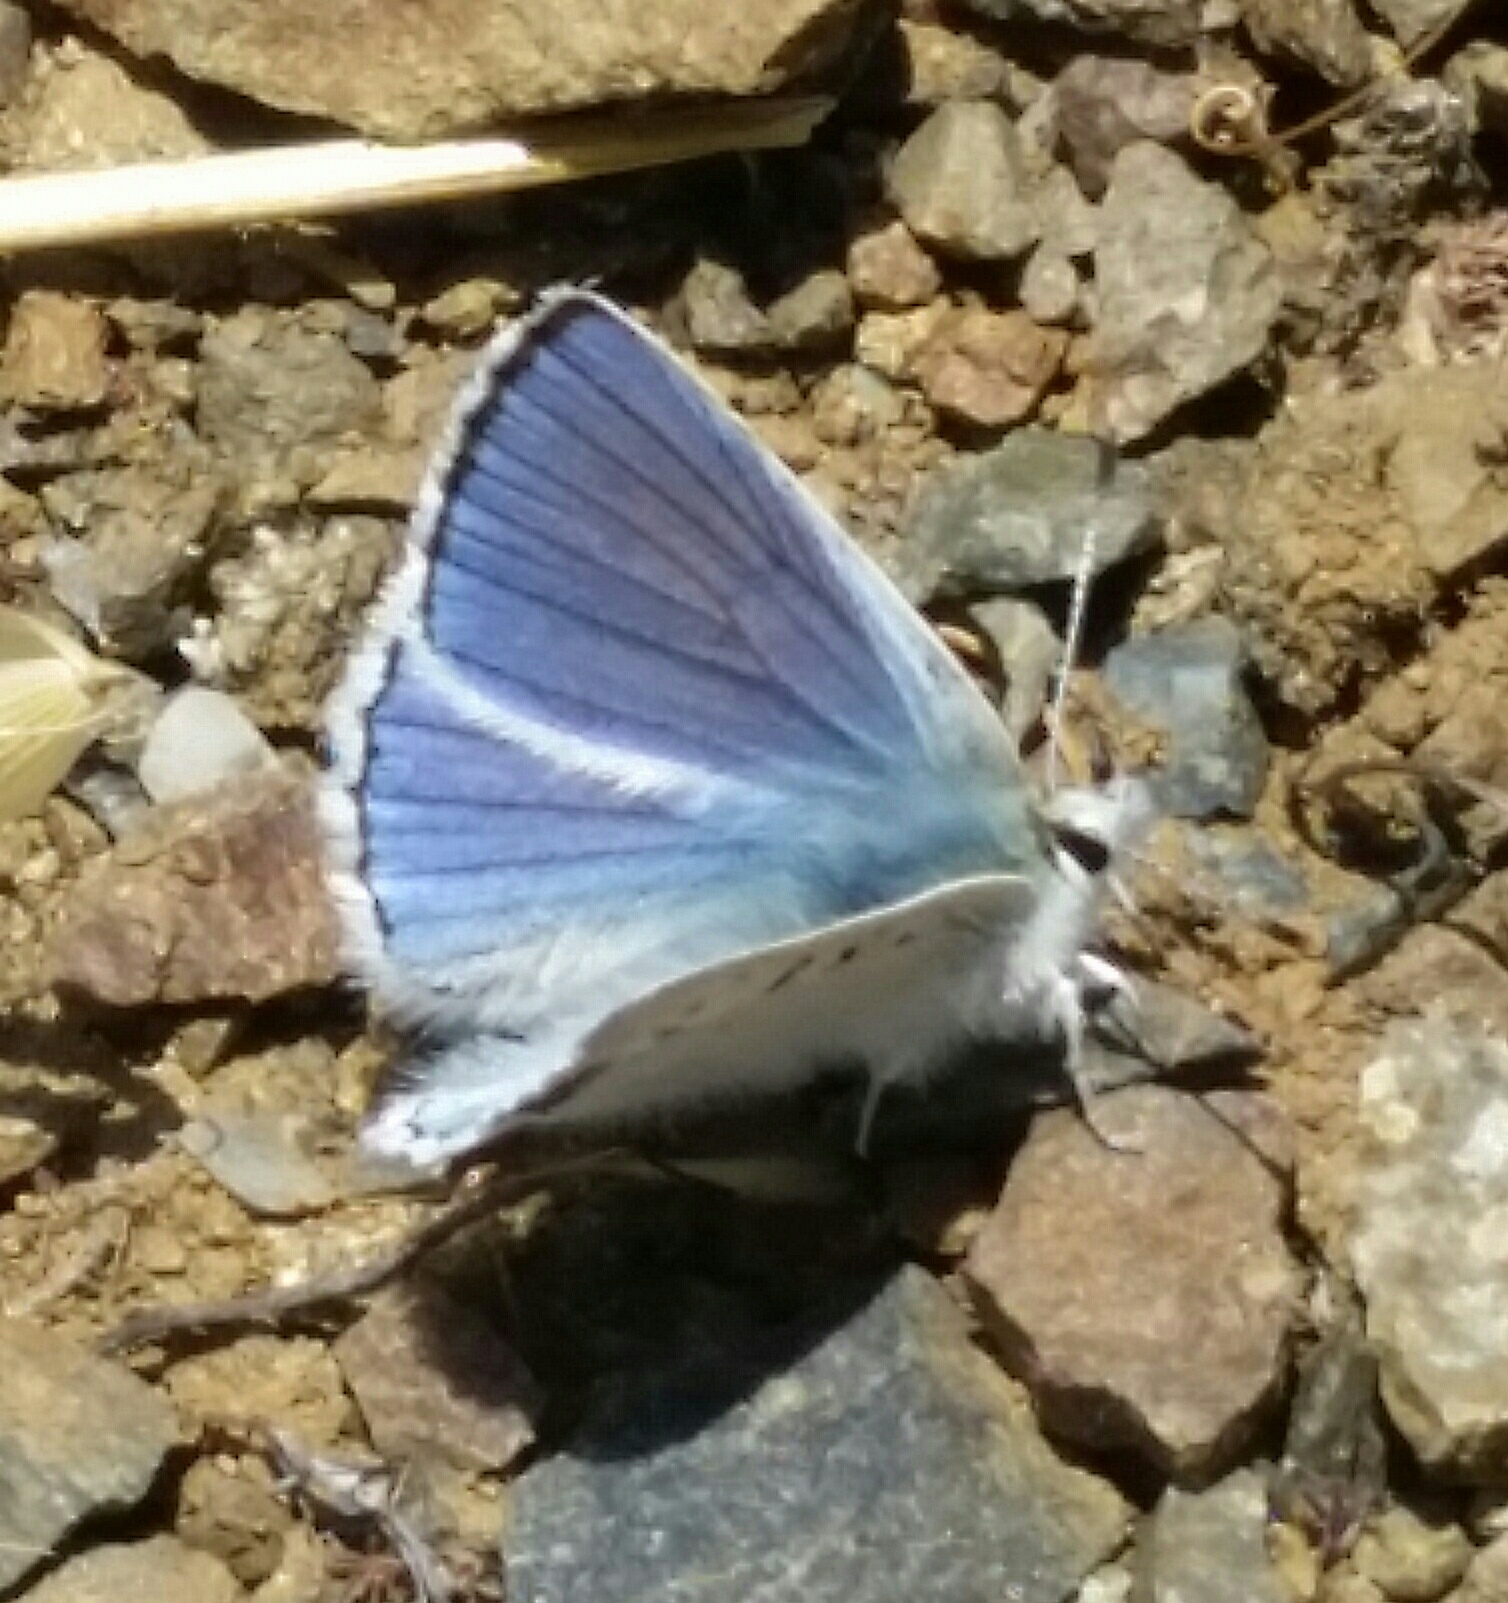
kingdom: Animalia
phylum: Arthropoda
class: Insecta
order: Lepidoptera
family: Lycaenidae
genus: Tharsalea
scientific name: Tharsalea heteronea
